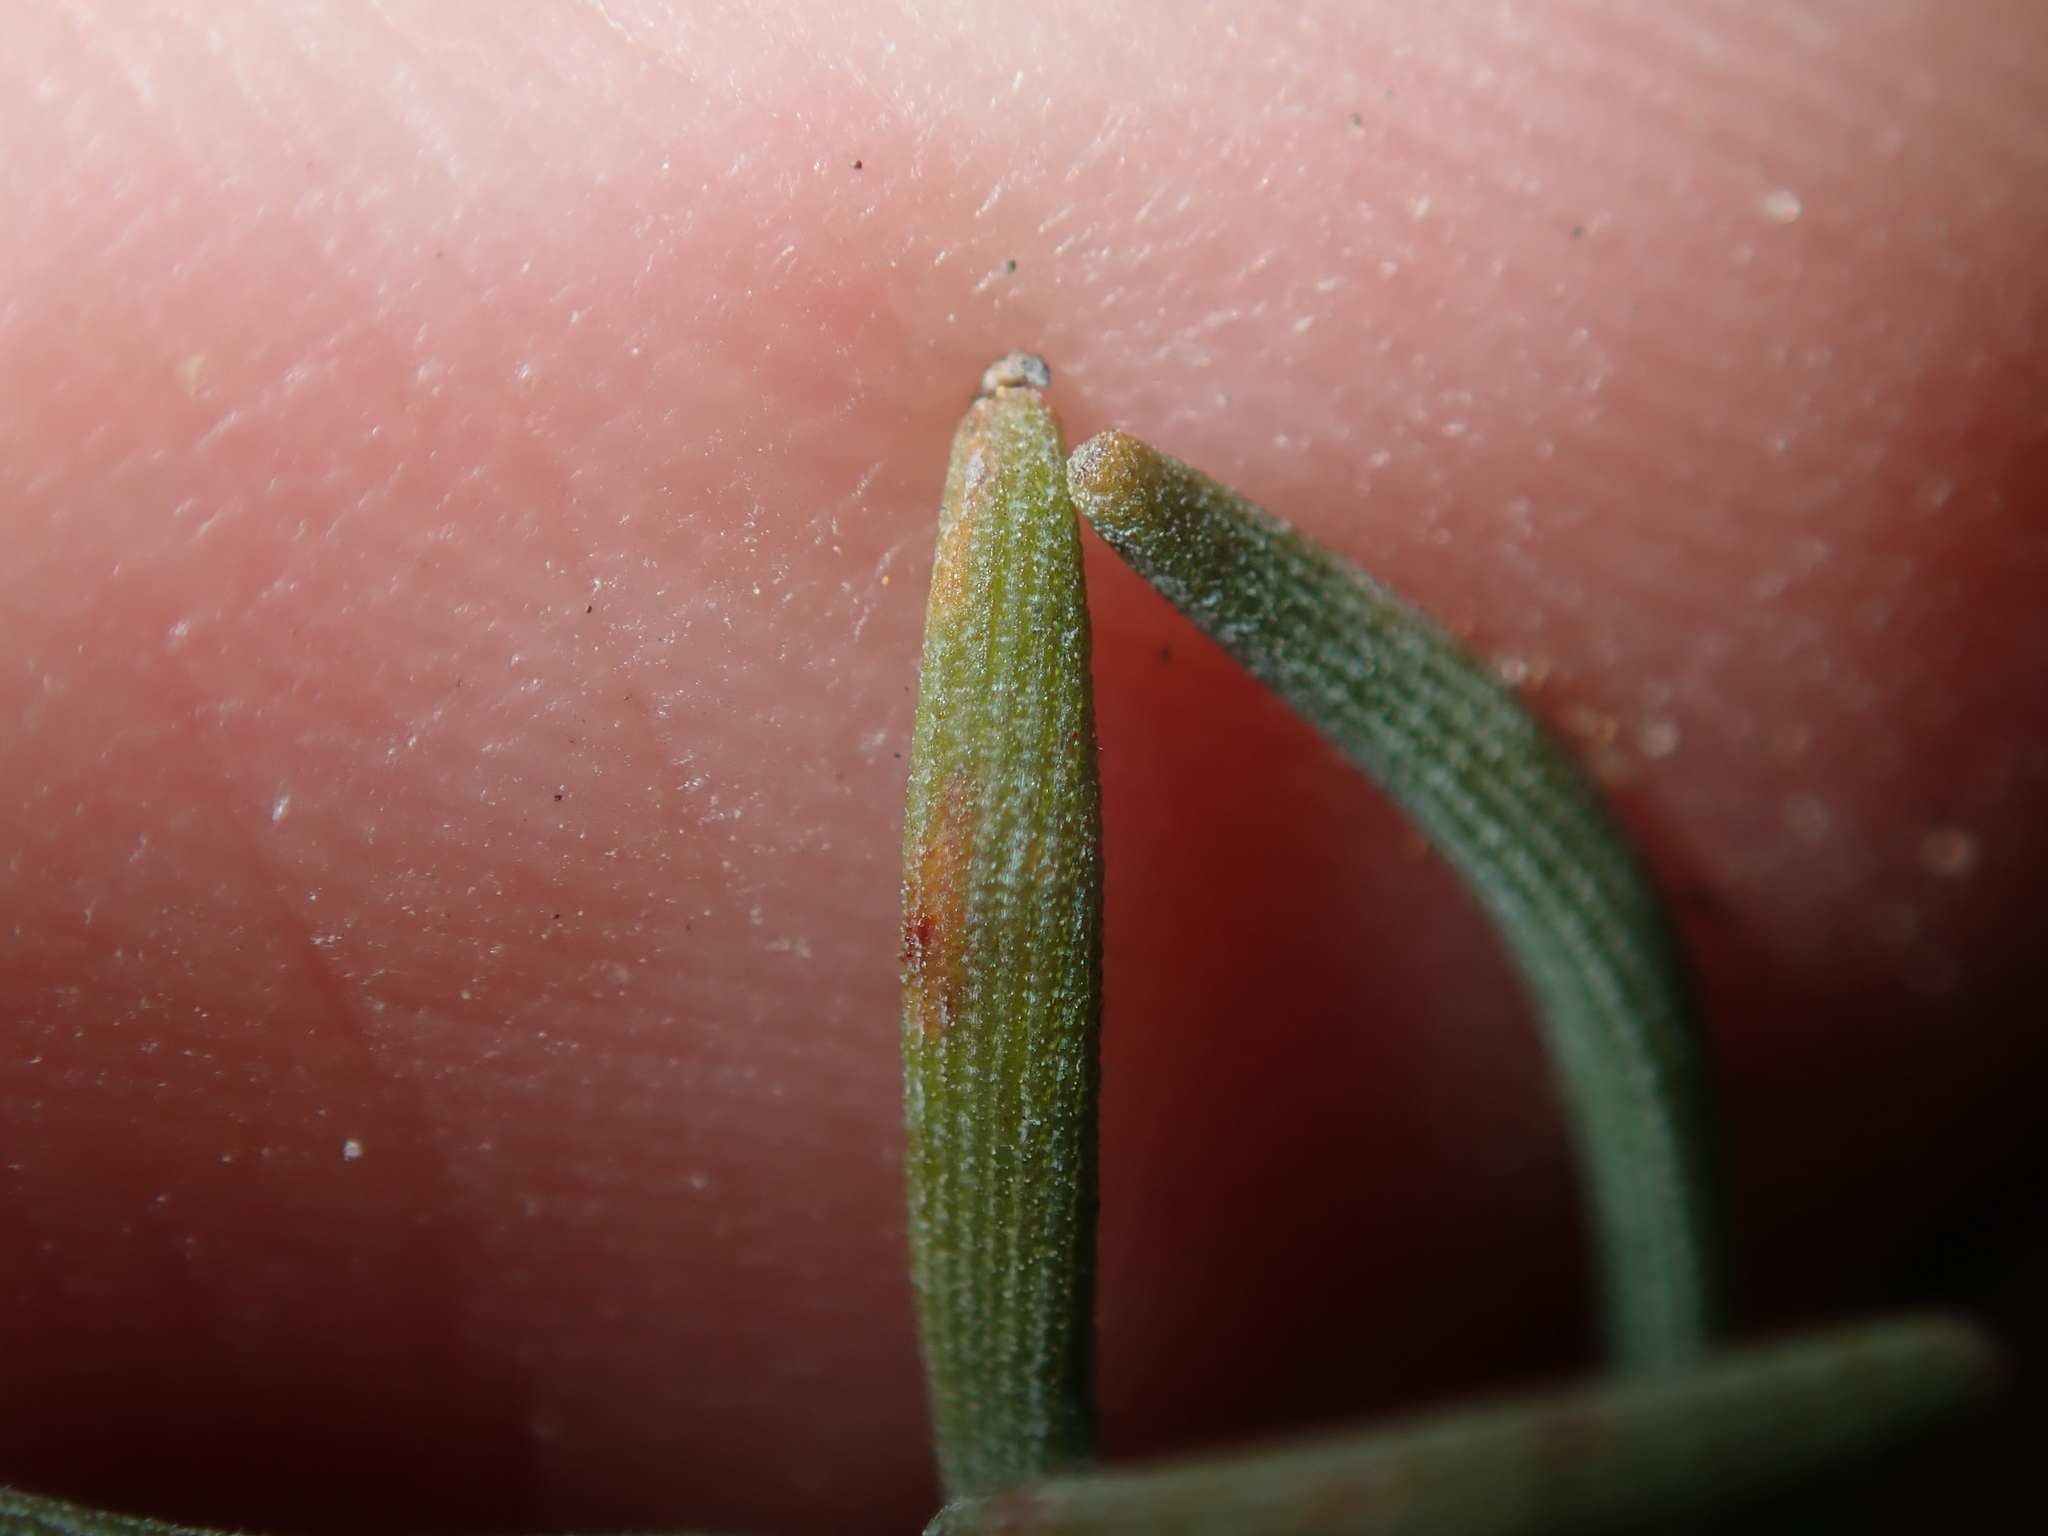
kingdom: Plantae
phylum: Tracheophyta
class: Liliopsida
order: Poales
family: Restionaceae
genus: Alexgeorgea
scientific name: Alexgeorgea nitens
